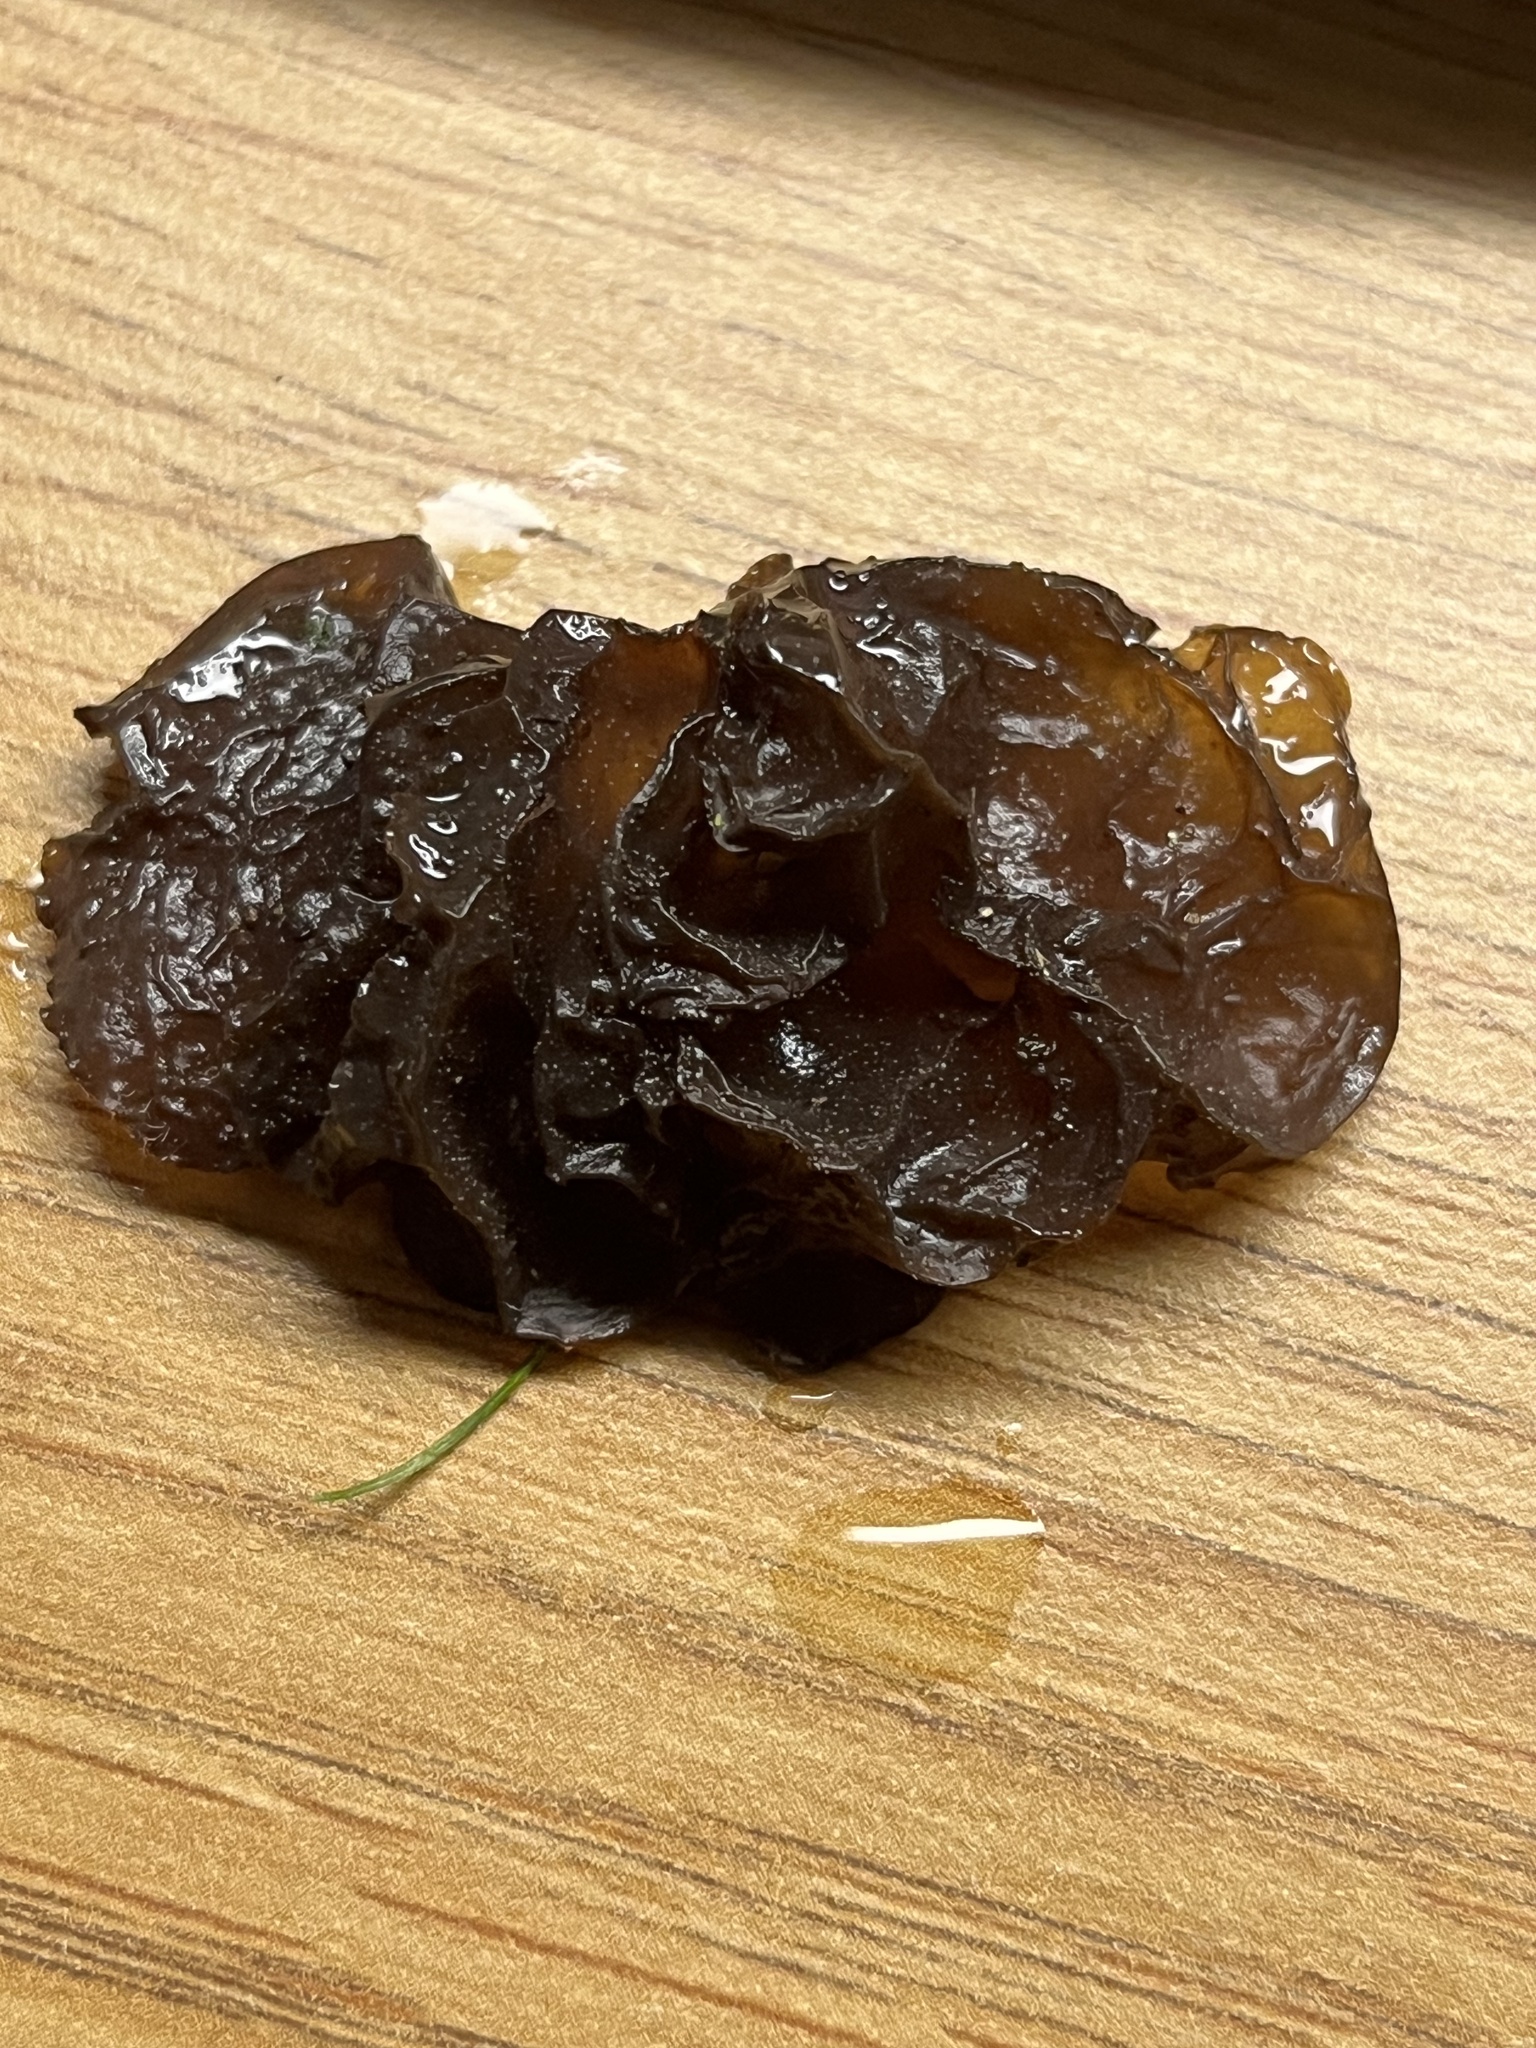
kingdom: Fungi
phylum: Basidiomycota
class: Agaricomycetes
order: Auriculariales
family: Auriculariaceae
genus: Exidia
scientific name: Exidia
